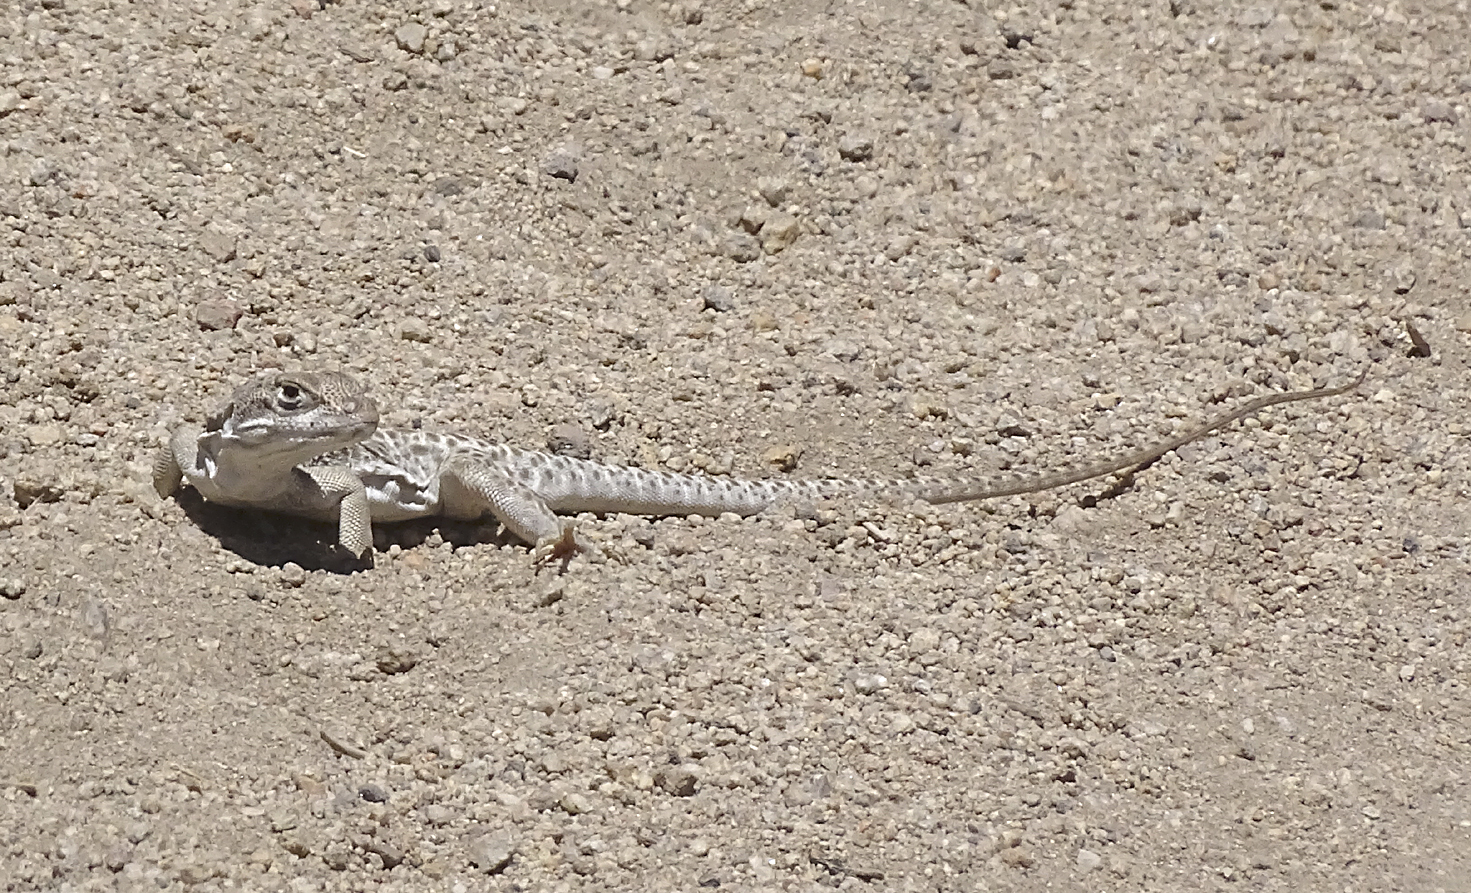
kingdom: Animalia
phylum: Chordata
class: Squamata
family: Crotaphytidae
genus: Gambelia
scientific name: Gambelia wislizenii
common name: Longnose leopard lizard
